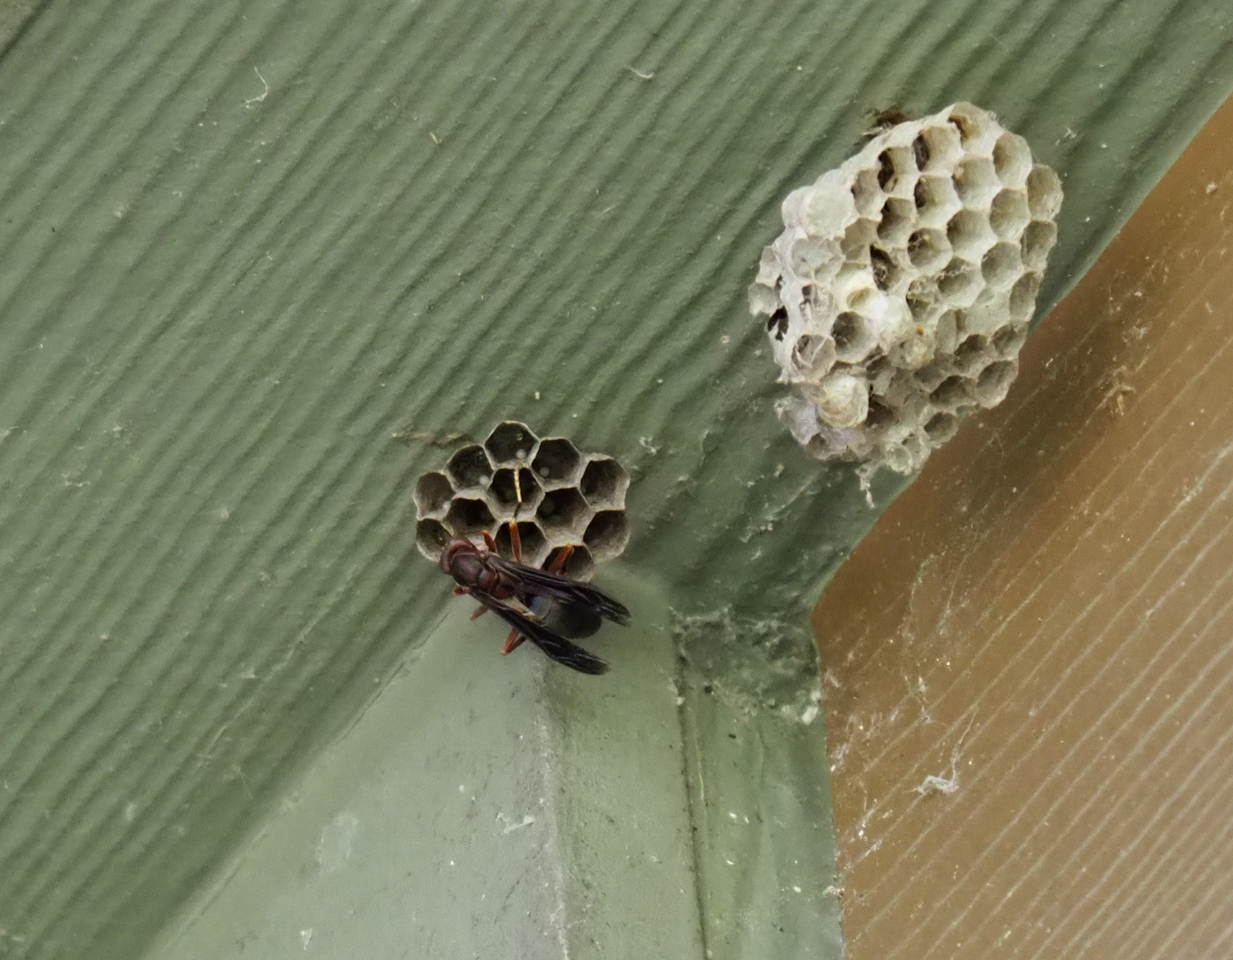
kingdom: Animalia
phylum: Arthropoda
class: Insecta
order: Hymenoptera
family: Eumenidae
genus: Polistes
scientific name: Polistes metricus
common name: Metric paper wasp
